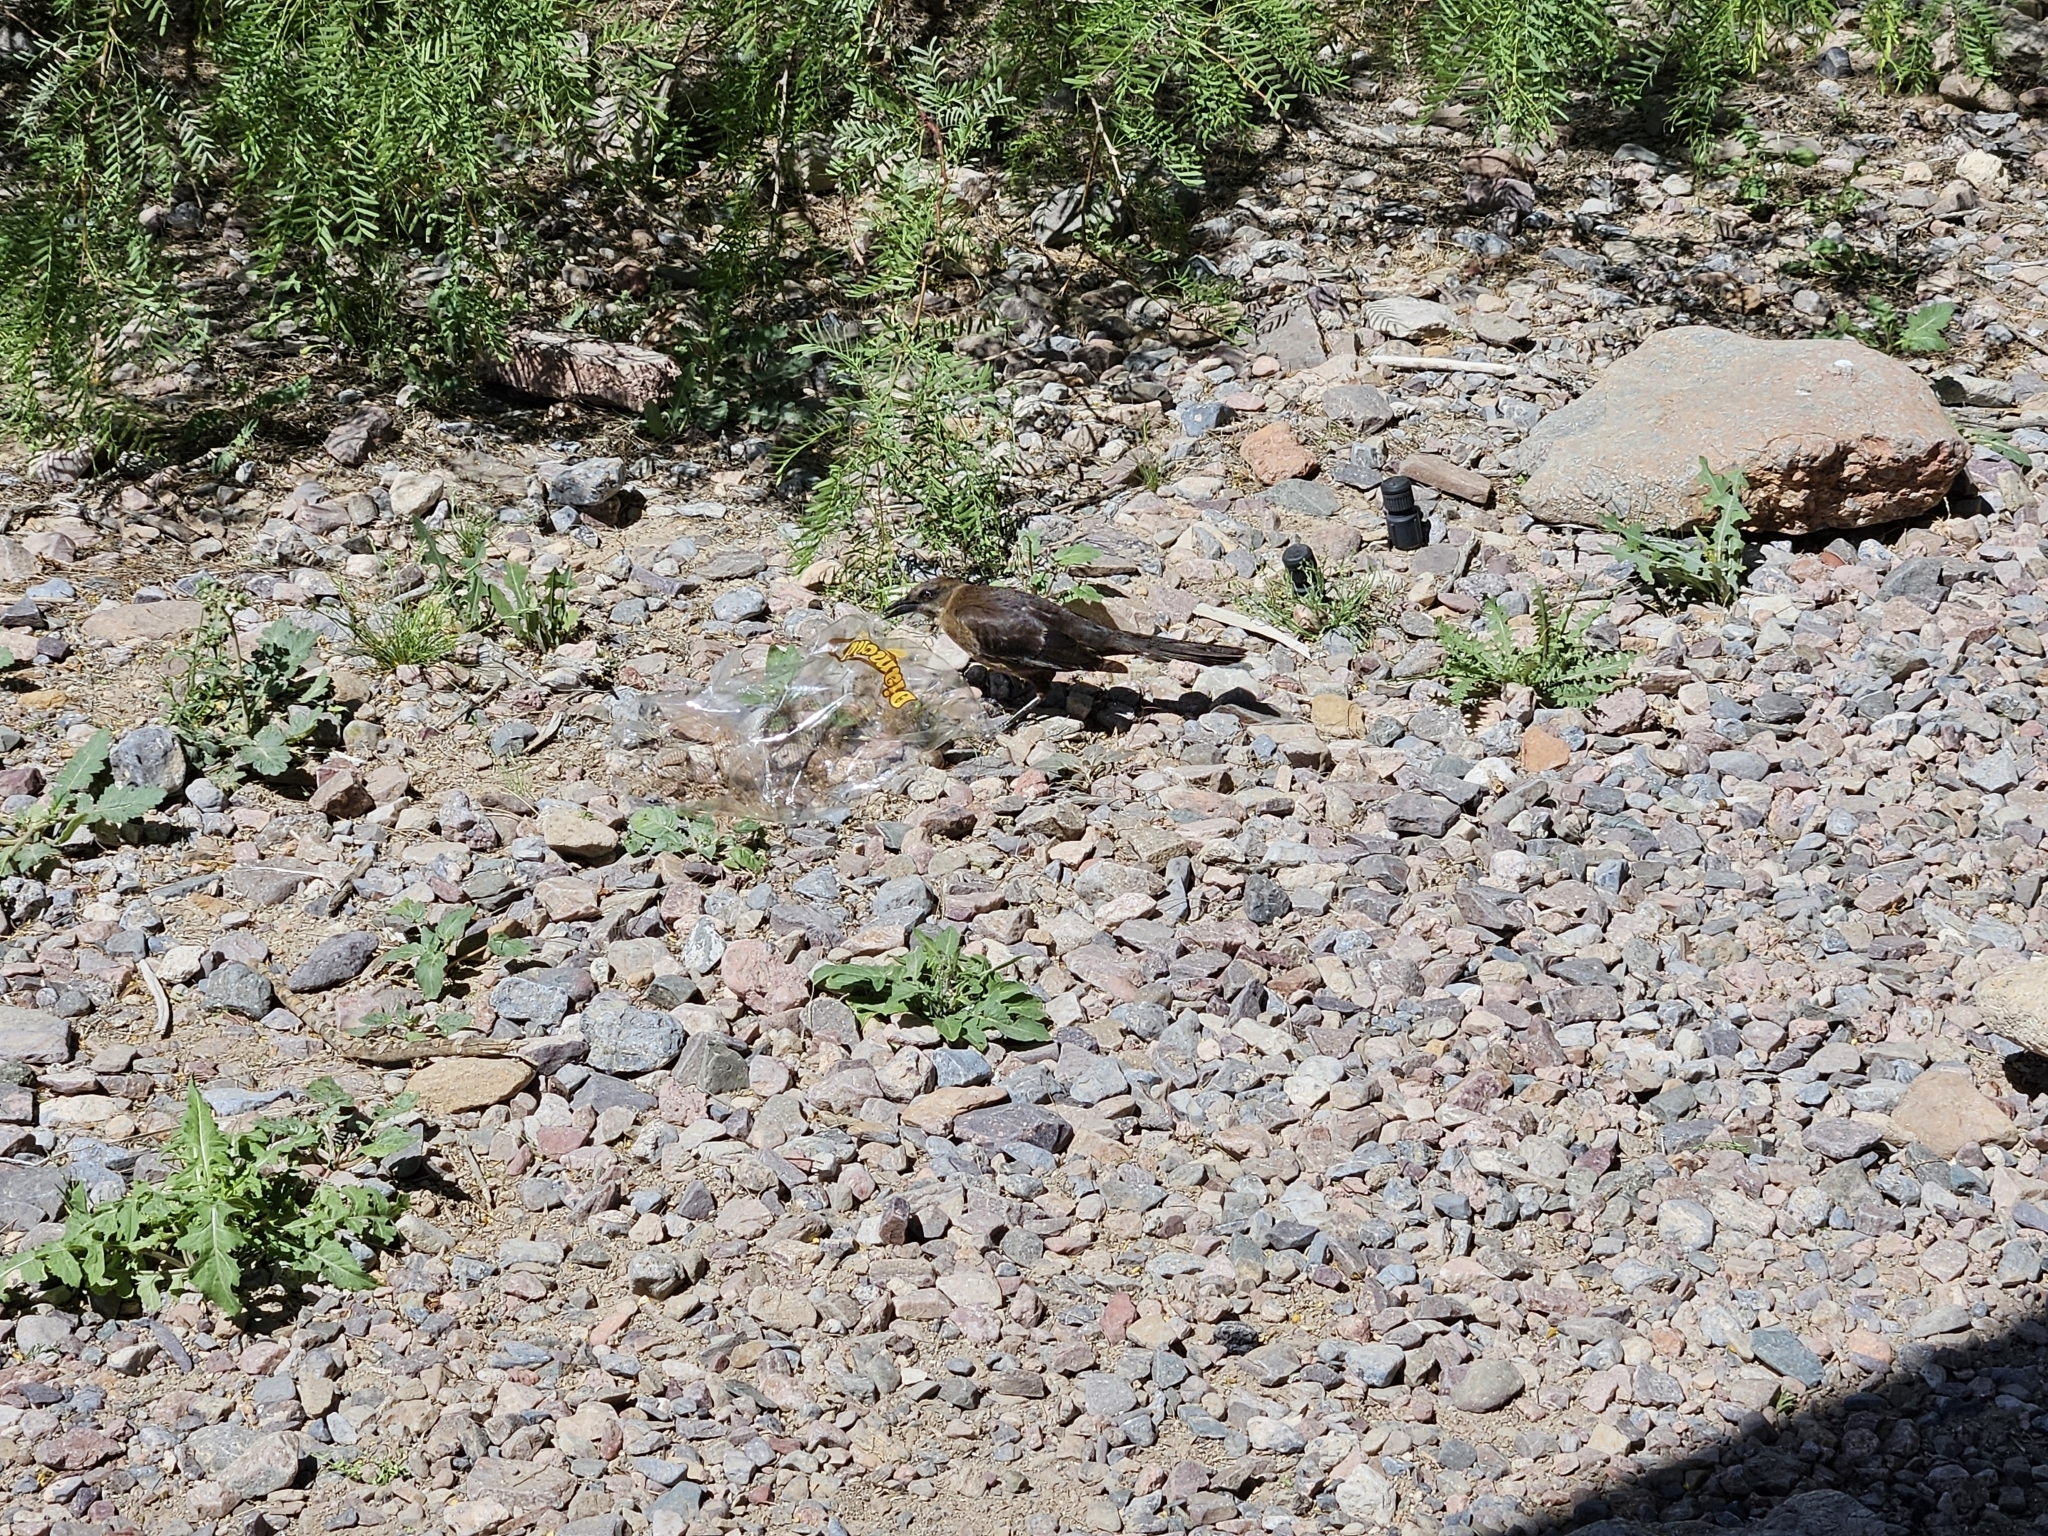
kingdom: Animalia
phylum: Chordata
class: Aves
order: Passeriformes
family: Icteridae
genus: Quiscalus
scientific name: Quiscalus mexicanus
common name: Great-tailed grackle
